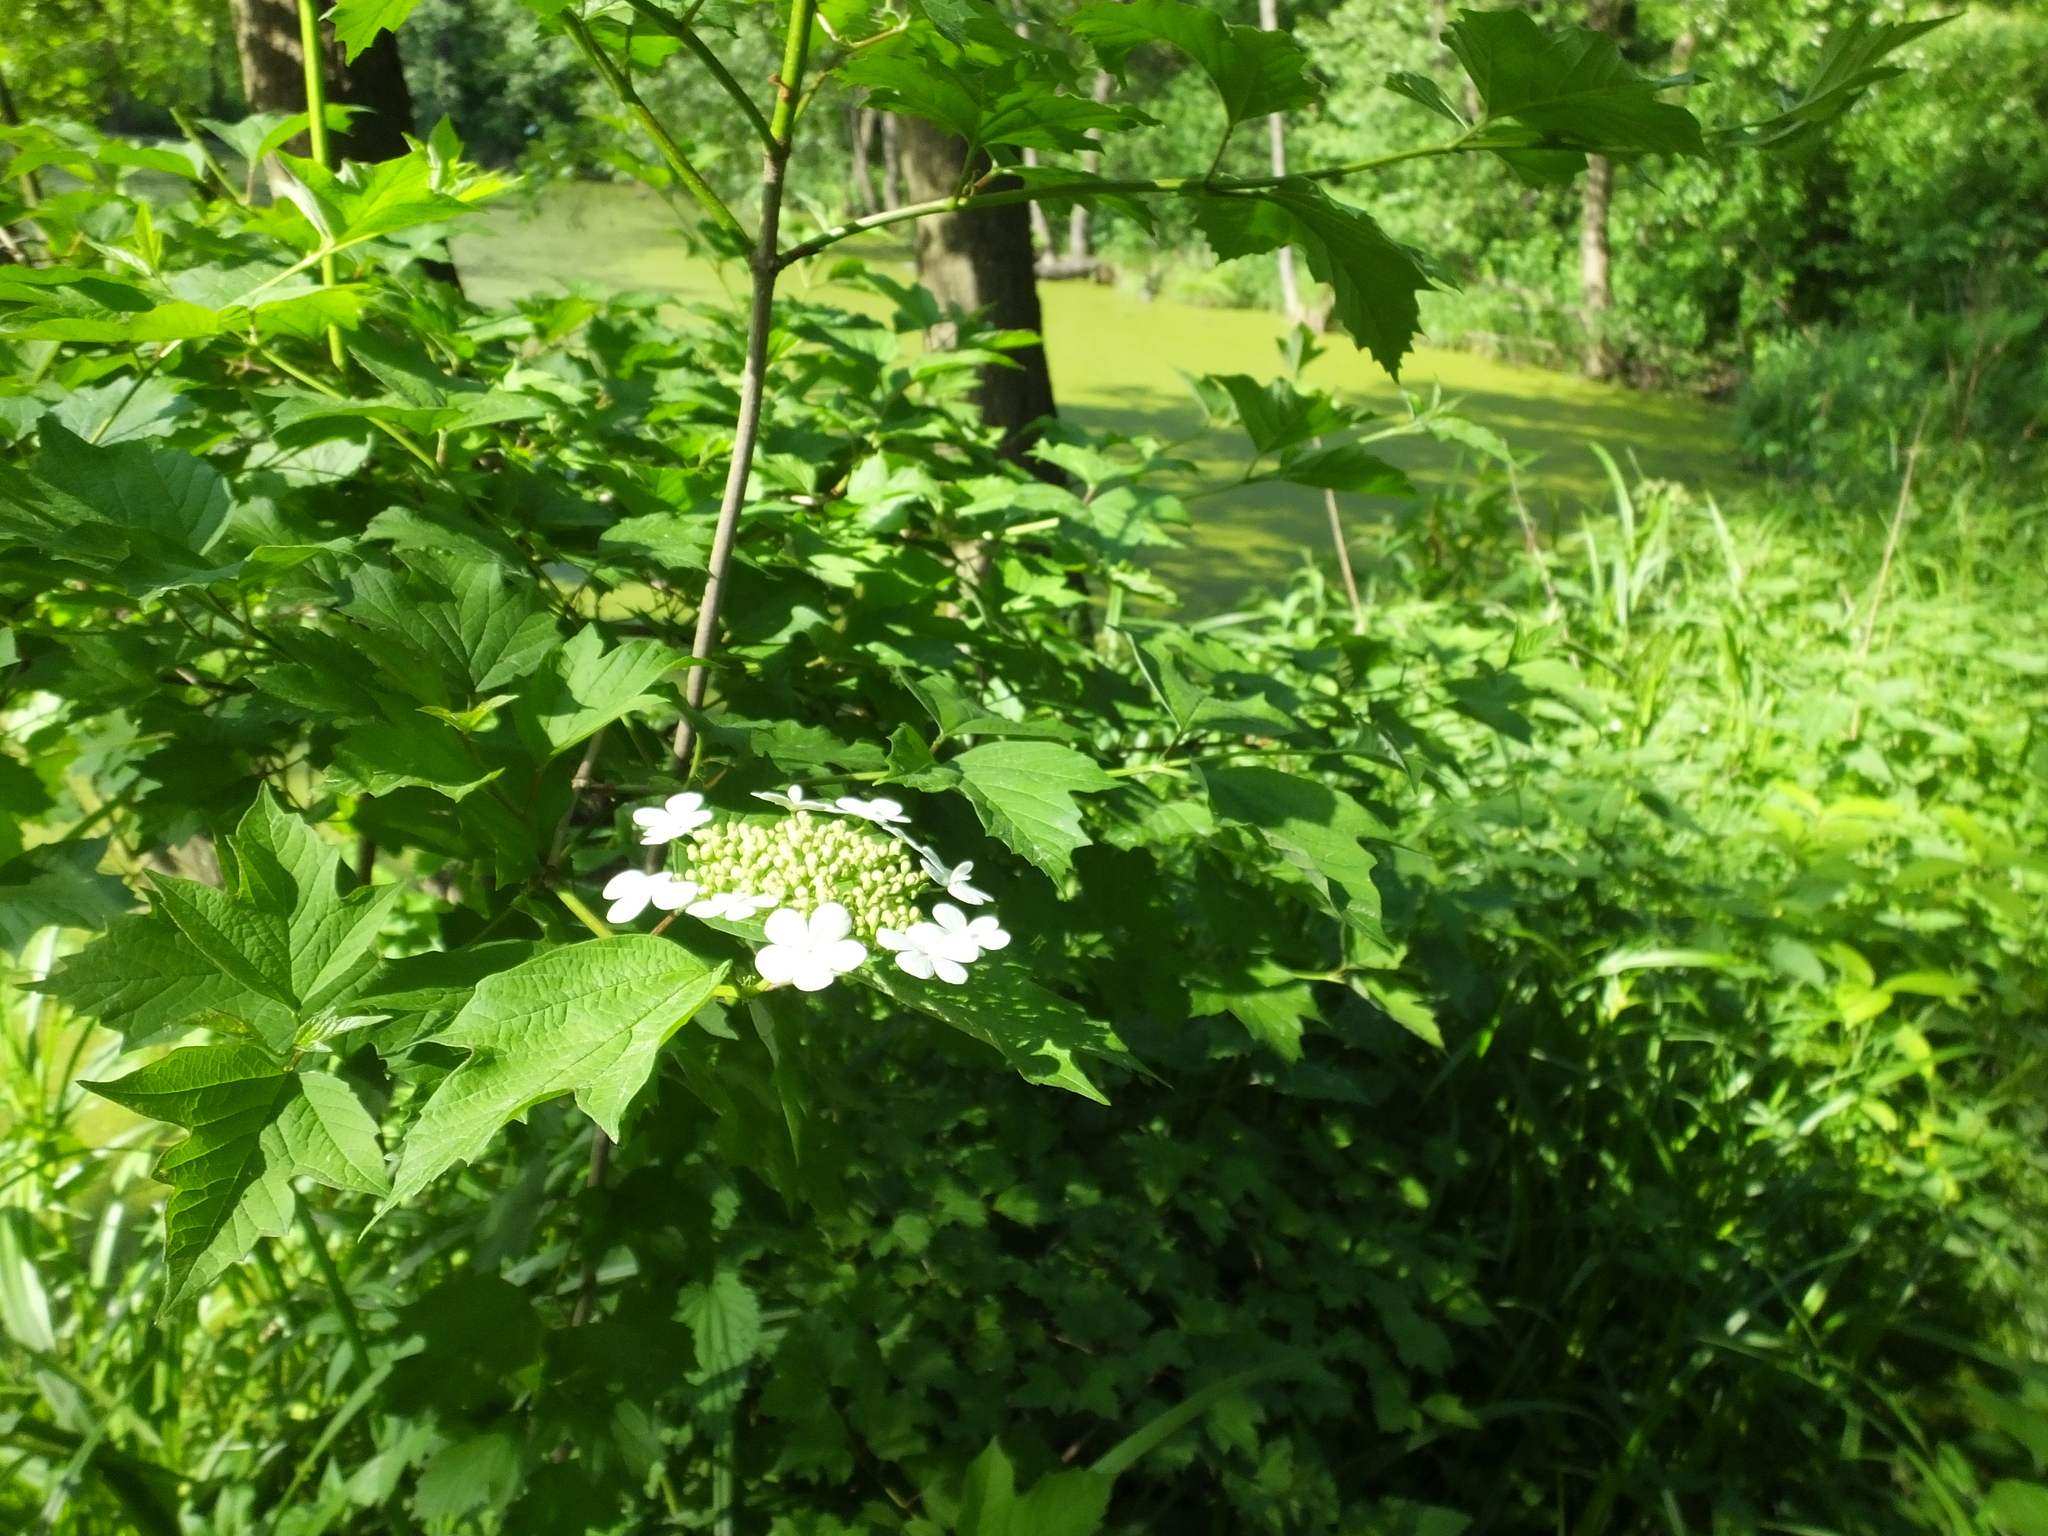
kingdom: Plantae
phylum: Tracheophyta
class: Magnoliopsida
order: Dipsacales
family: Viburnaceae
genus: Viburnum
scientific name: Viburnum opulus
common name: Guelder-rose
